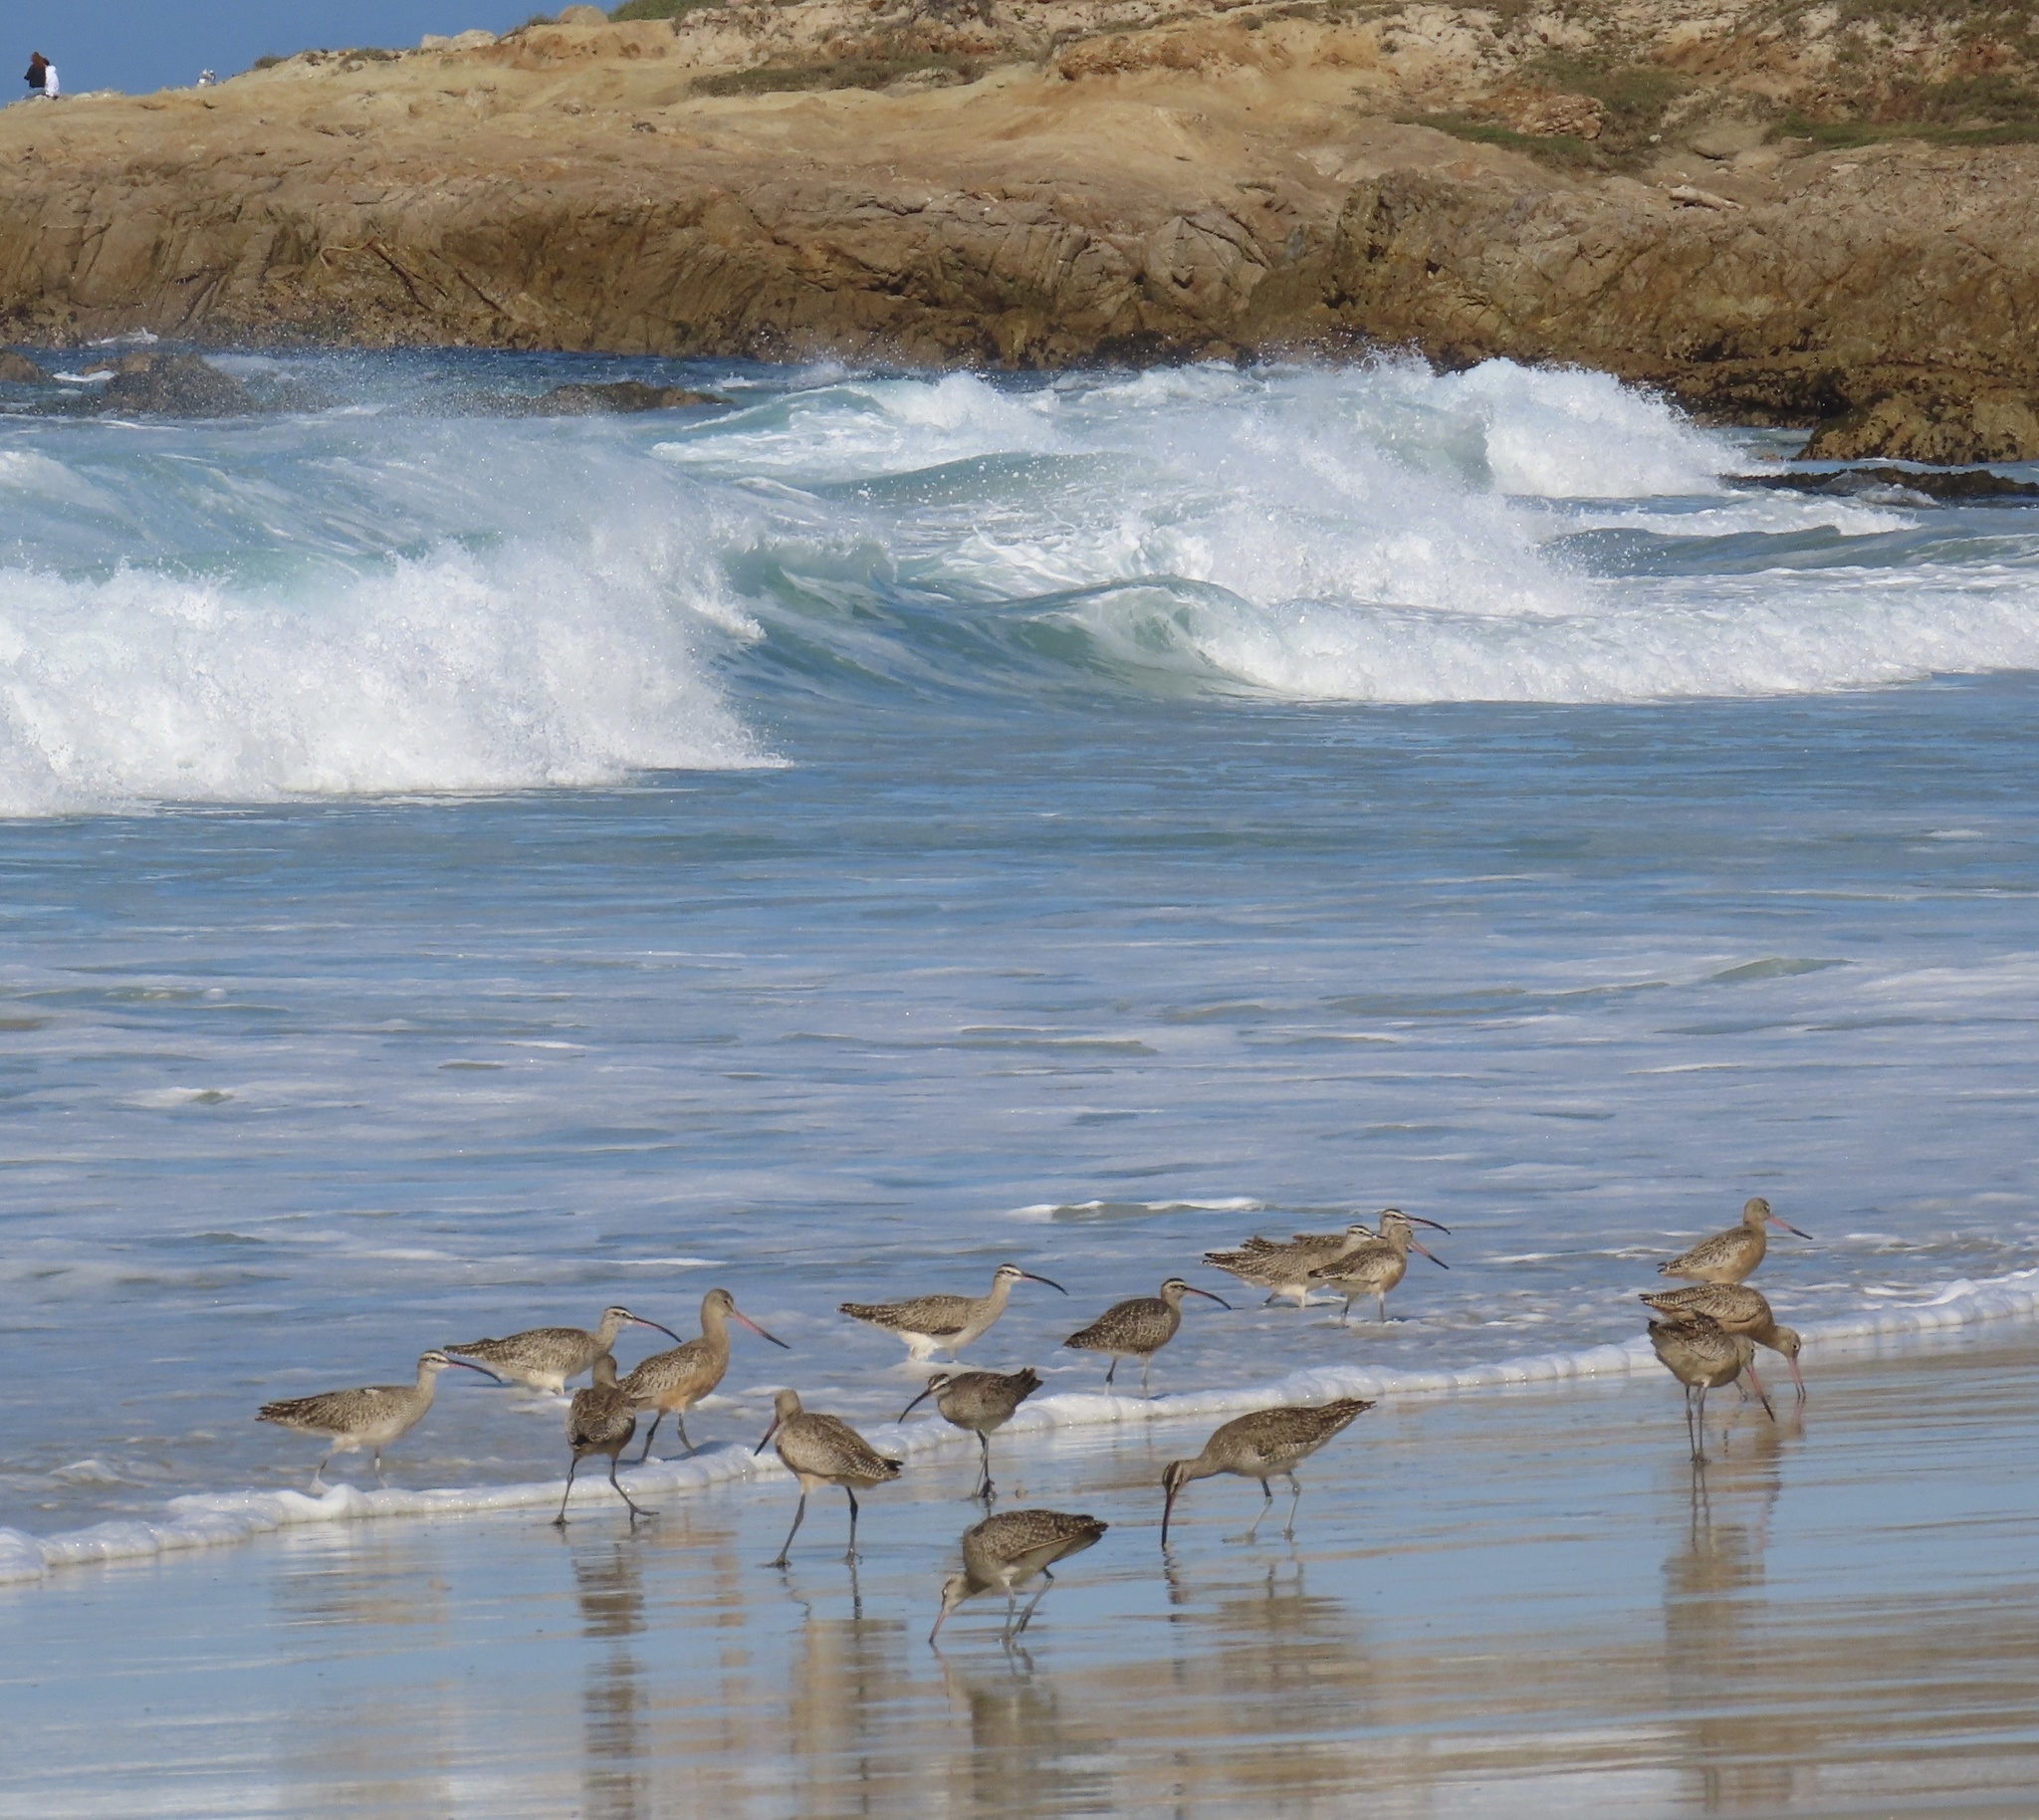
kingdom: Animalia
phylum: Chordata
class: Aves
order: Charadriiformes
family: Scolopacidae
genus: Limosa
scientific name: Limosa fedoa
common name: Marbled godwit
